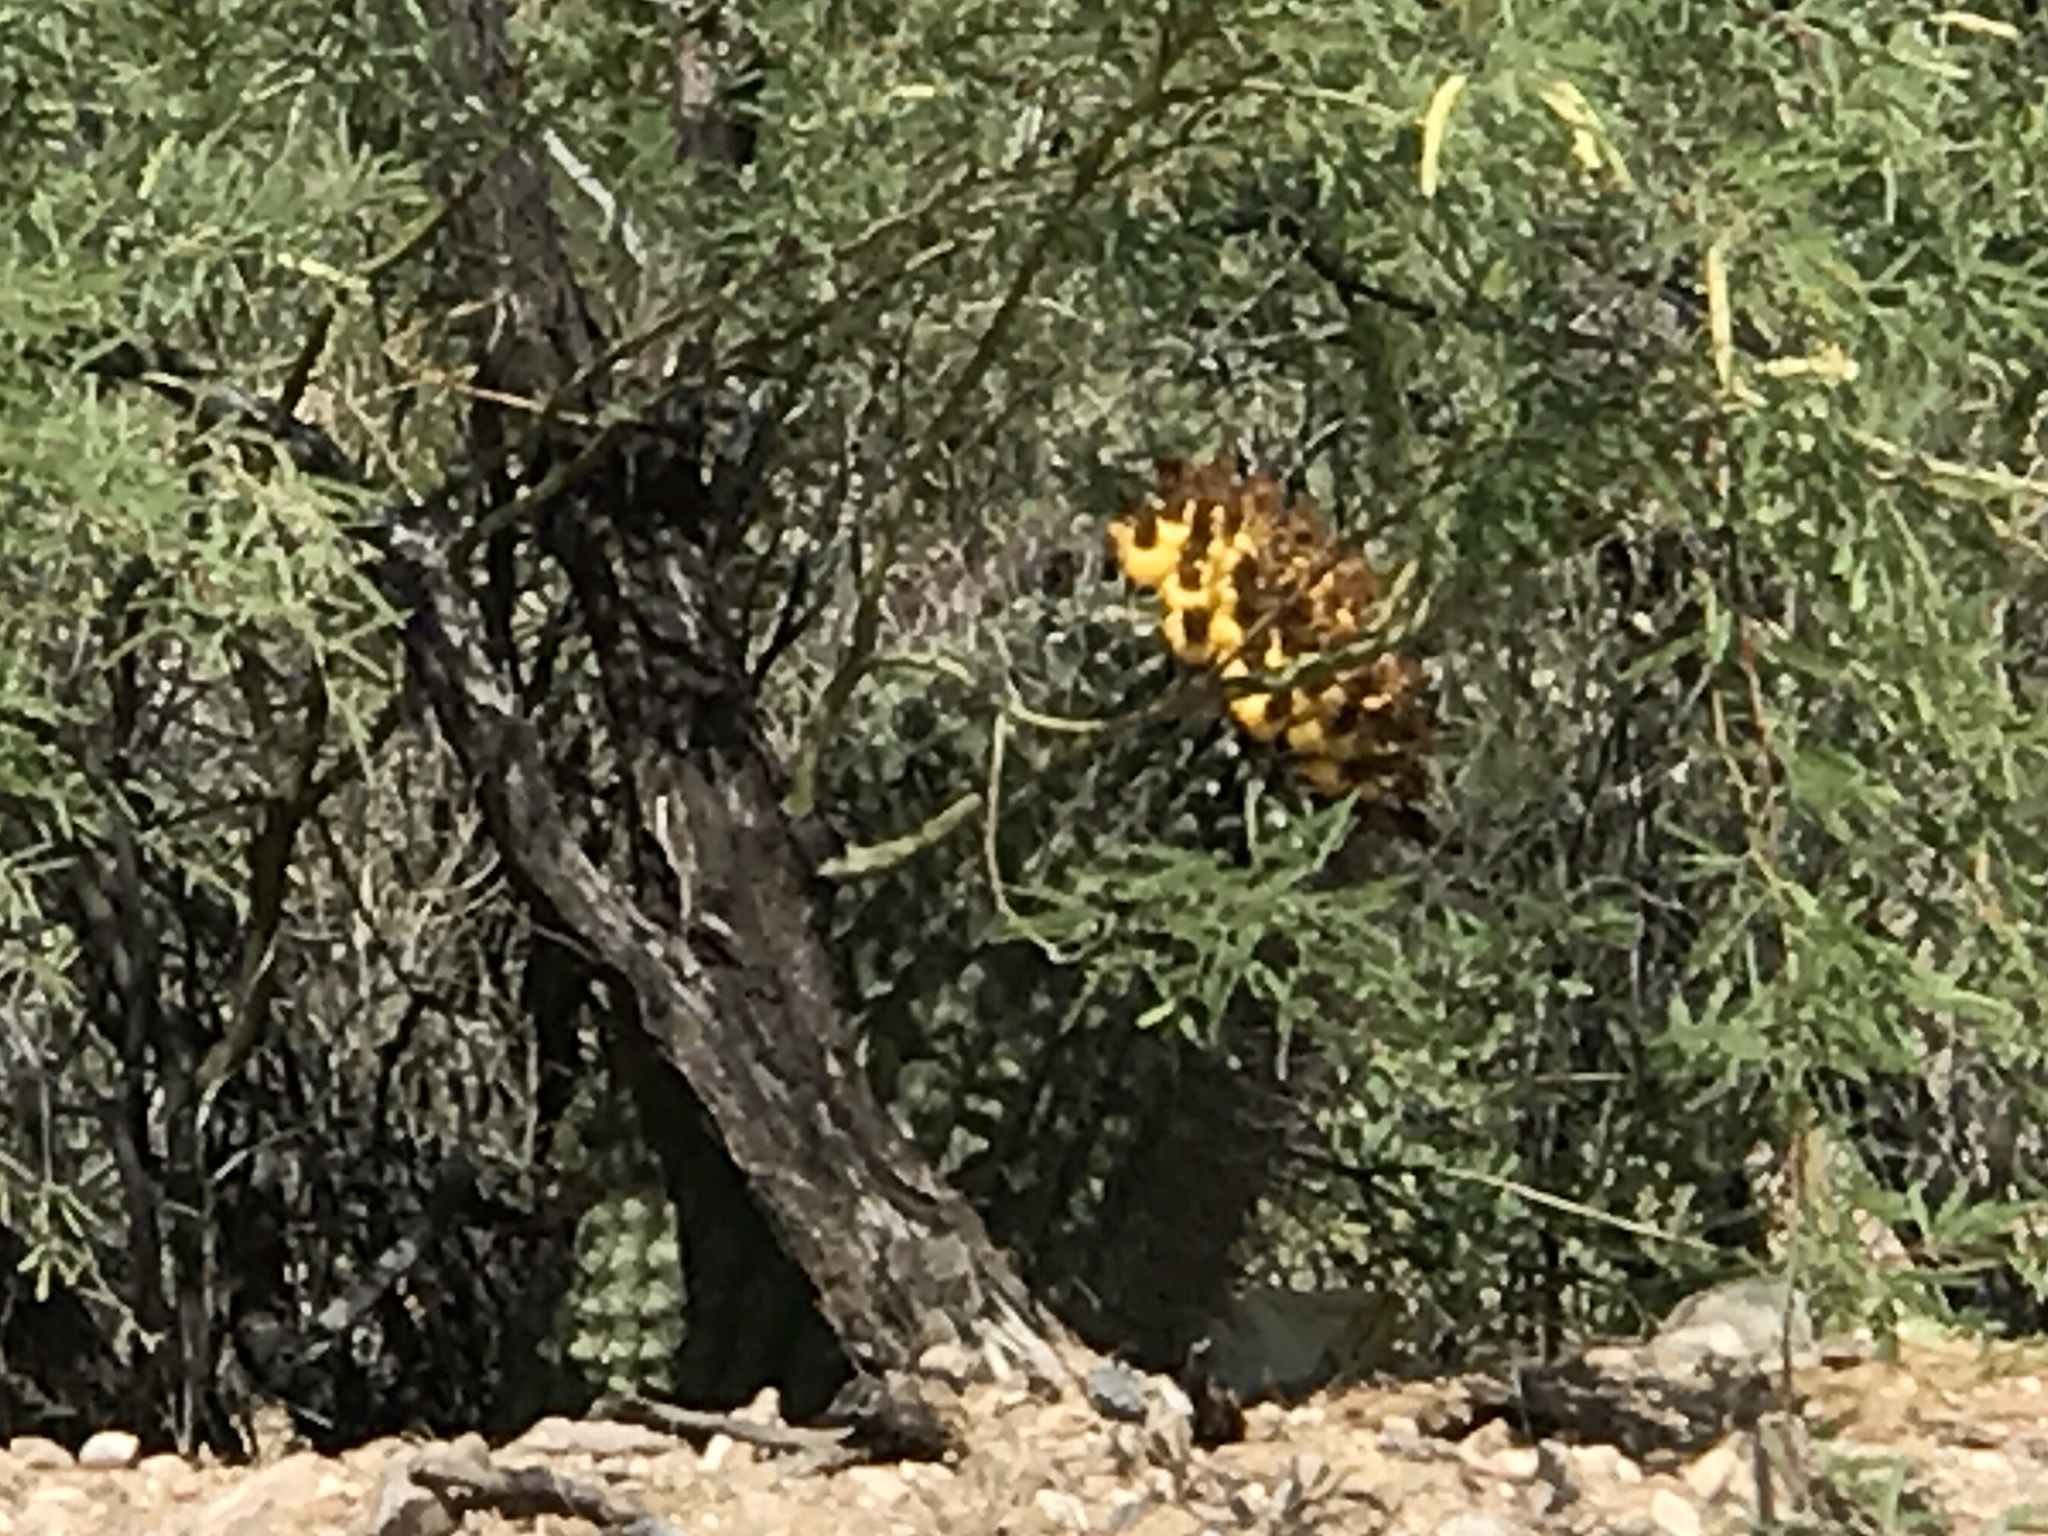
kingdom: Plantae
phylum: Tracheophyta
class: Magnoliopsida
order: Caryophyllales
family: Cactaceae
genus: Ferocactus
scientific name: Ferocactus wislizeni
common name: Candy barrel cactus
